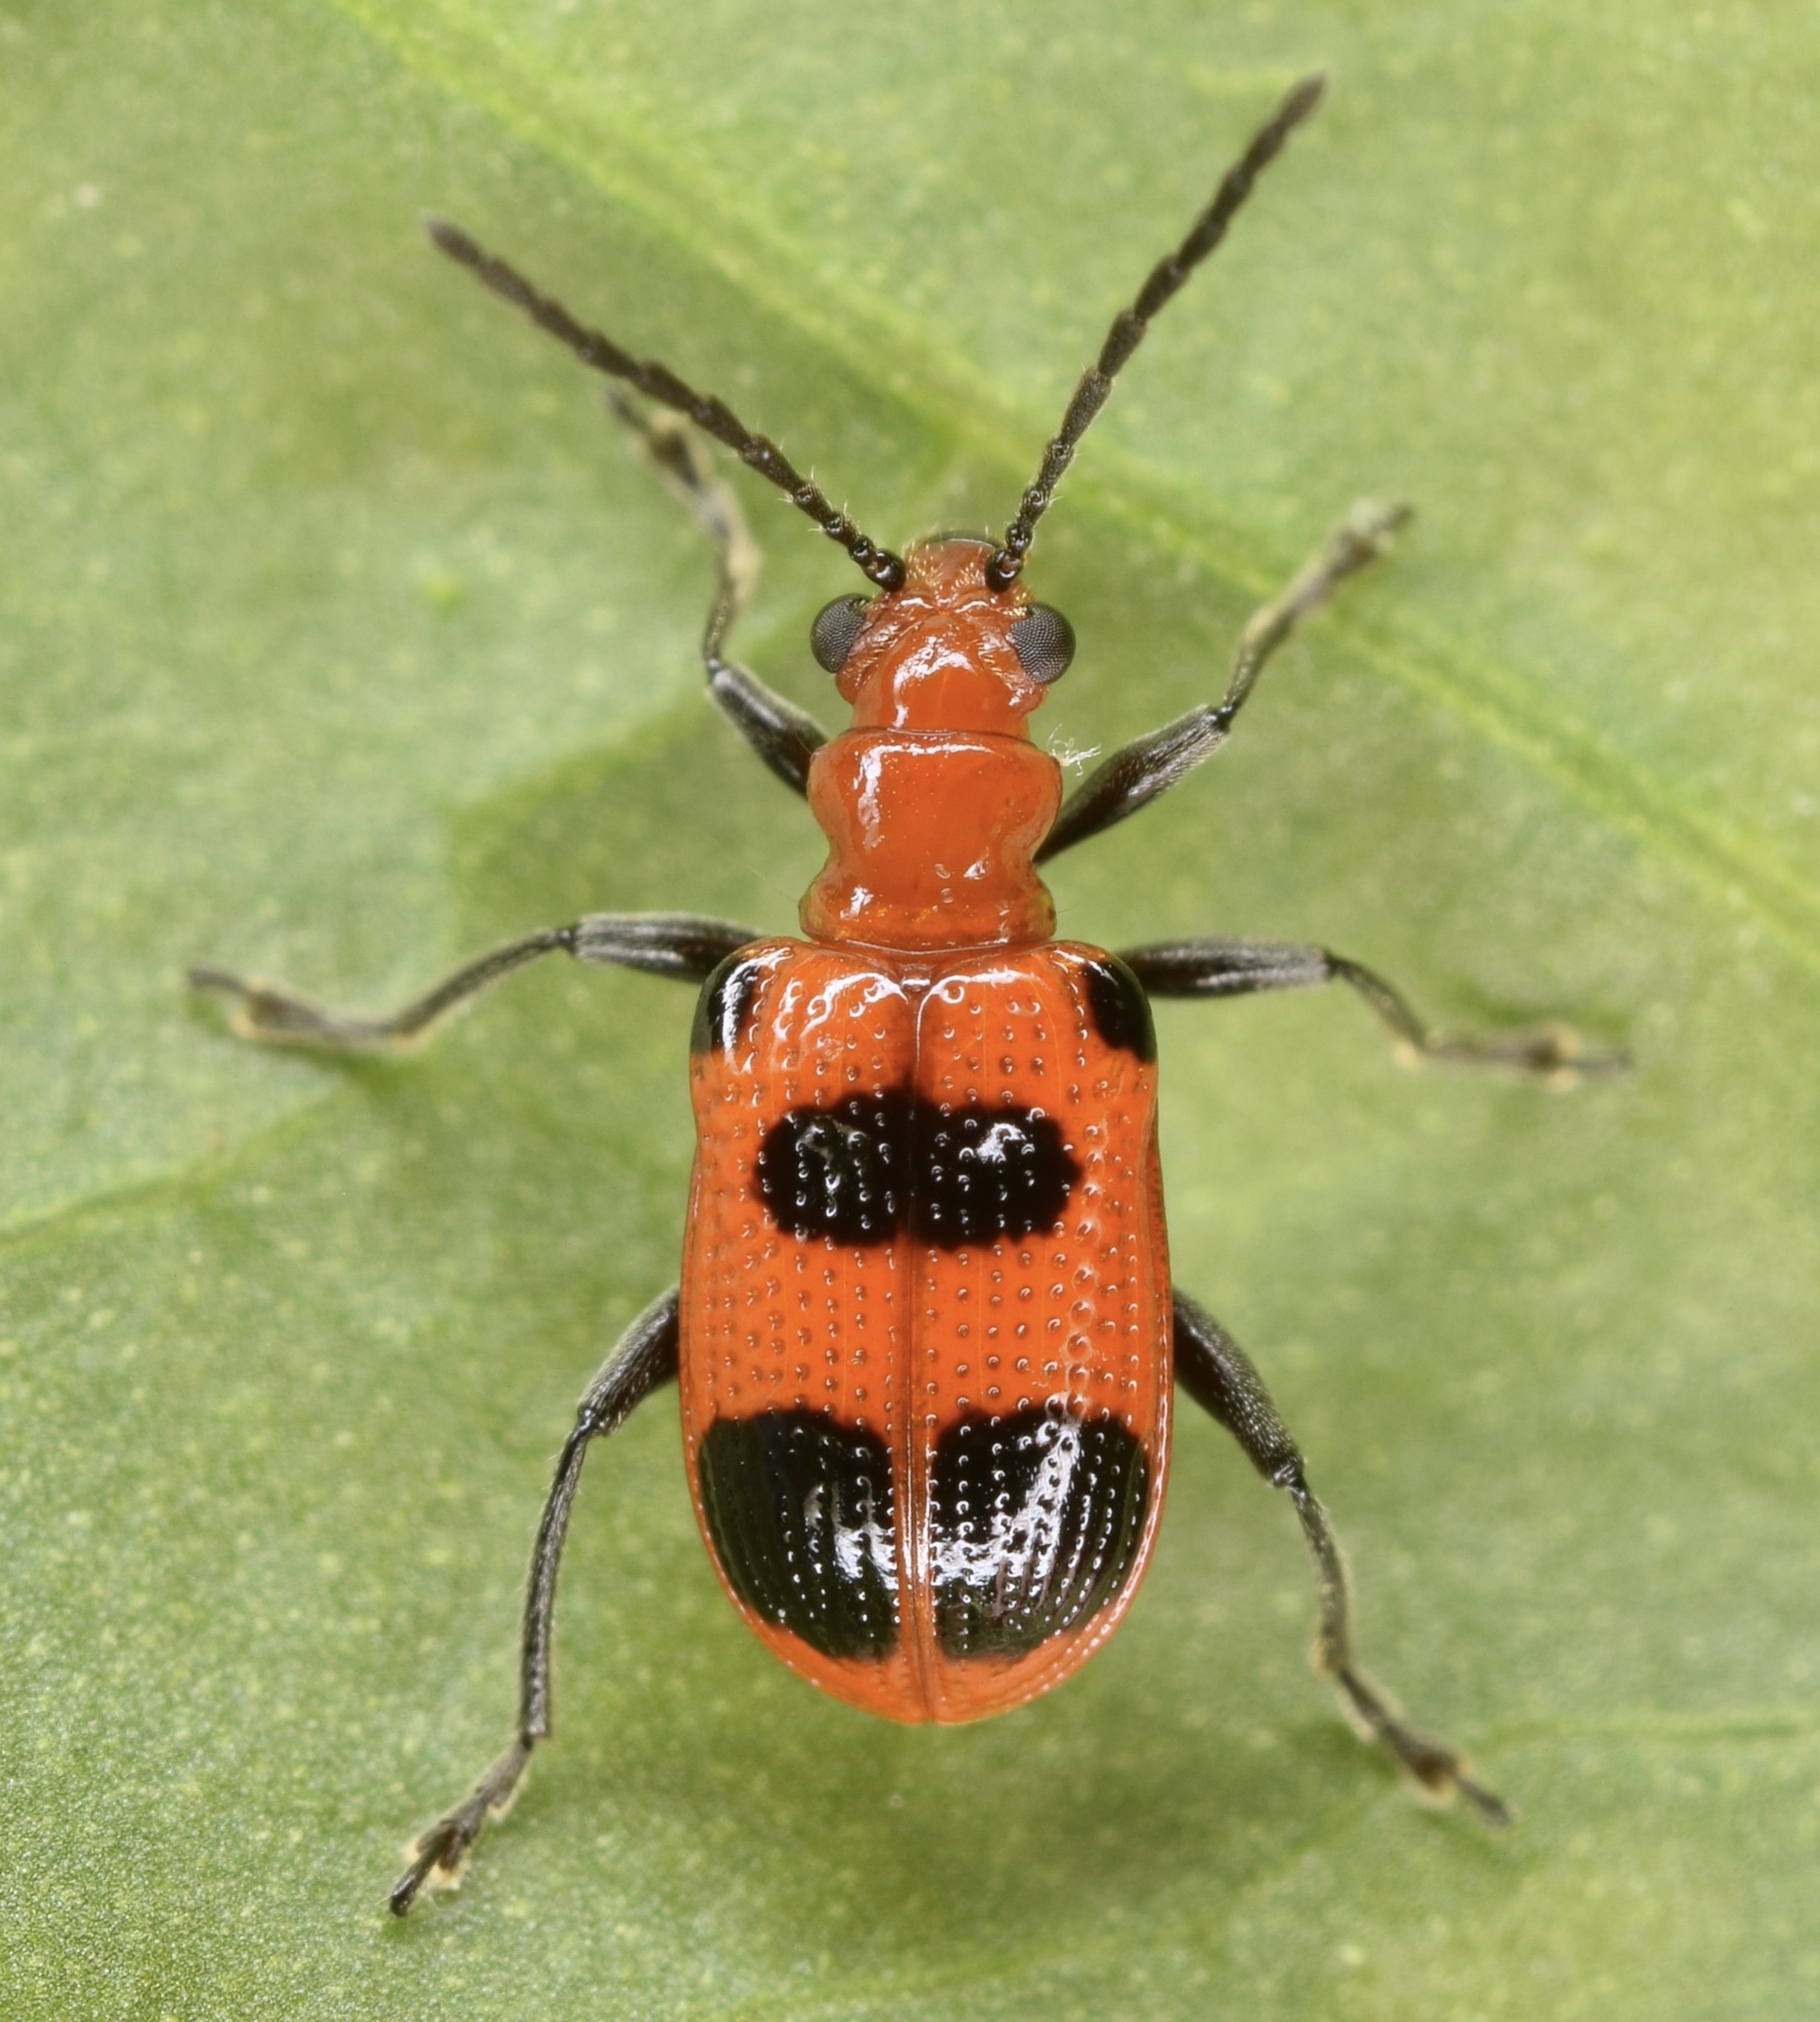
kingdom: Animalia
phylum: Arthropoda
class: Insecta
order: Coleoptera
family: Chrysomelidae
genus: Neolema
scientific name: Neolema sexpunctata
